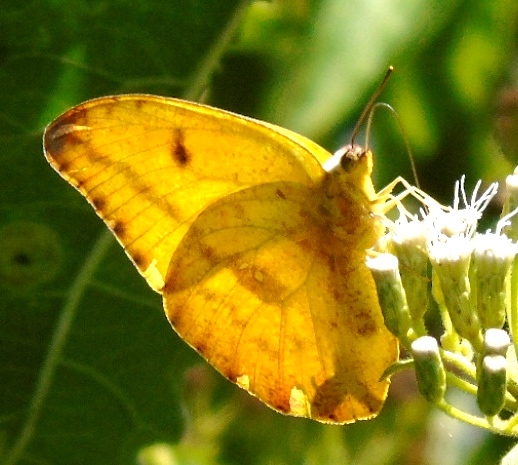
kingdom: Animalia
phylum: Arthropoda
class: Insecta
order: Lepidoptera
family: Pieridae
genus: Phoebis
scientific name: Phoebis agarithe
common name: Large orange sulphur
